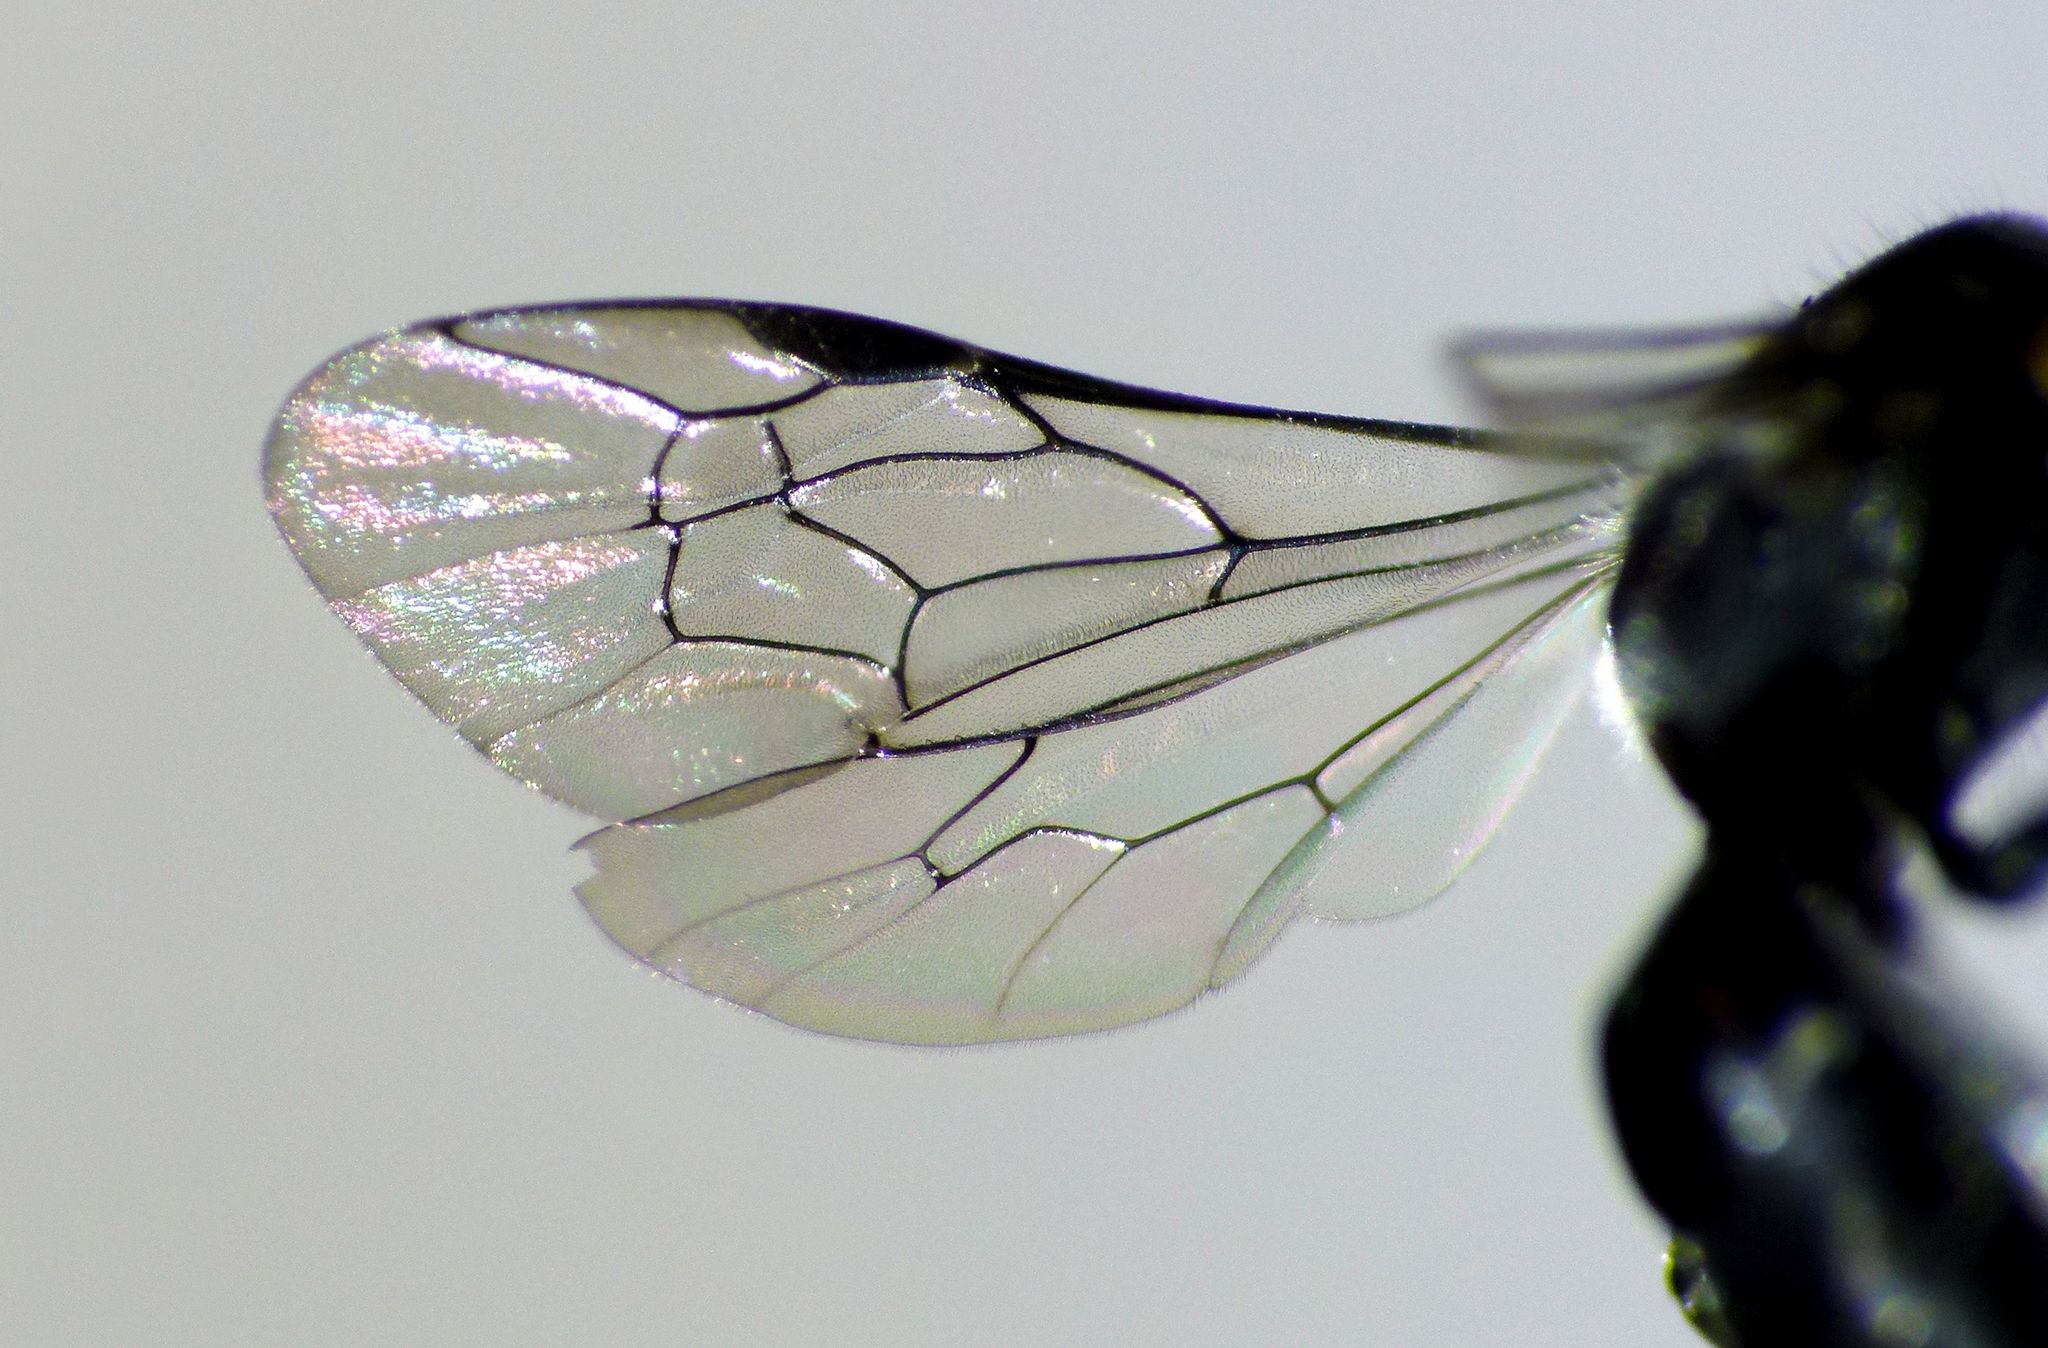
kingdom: Animalia
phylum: Arthropoda
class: Insecta
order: Hymenoptera
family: Colletidae
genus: Hylaeus
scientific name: Hylaeus relegatus
